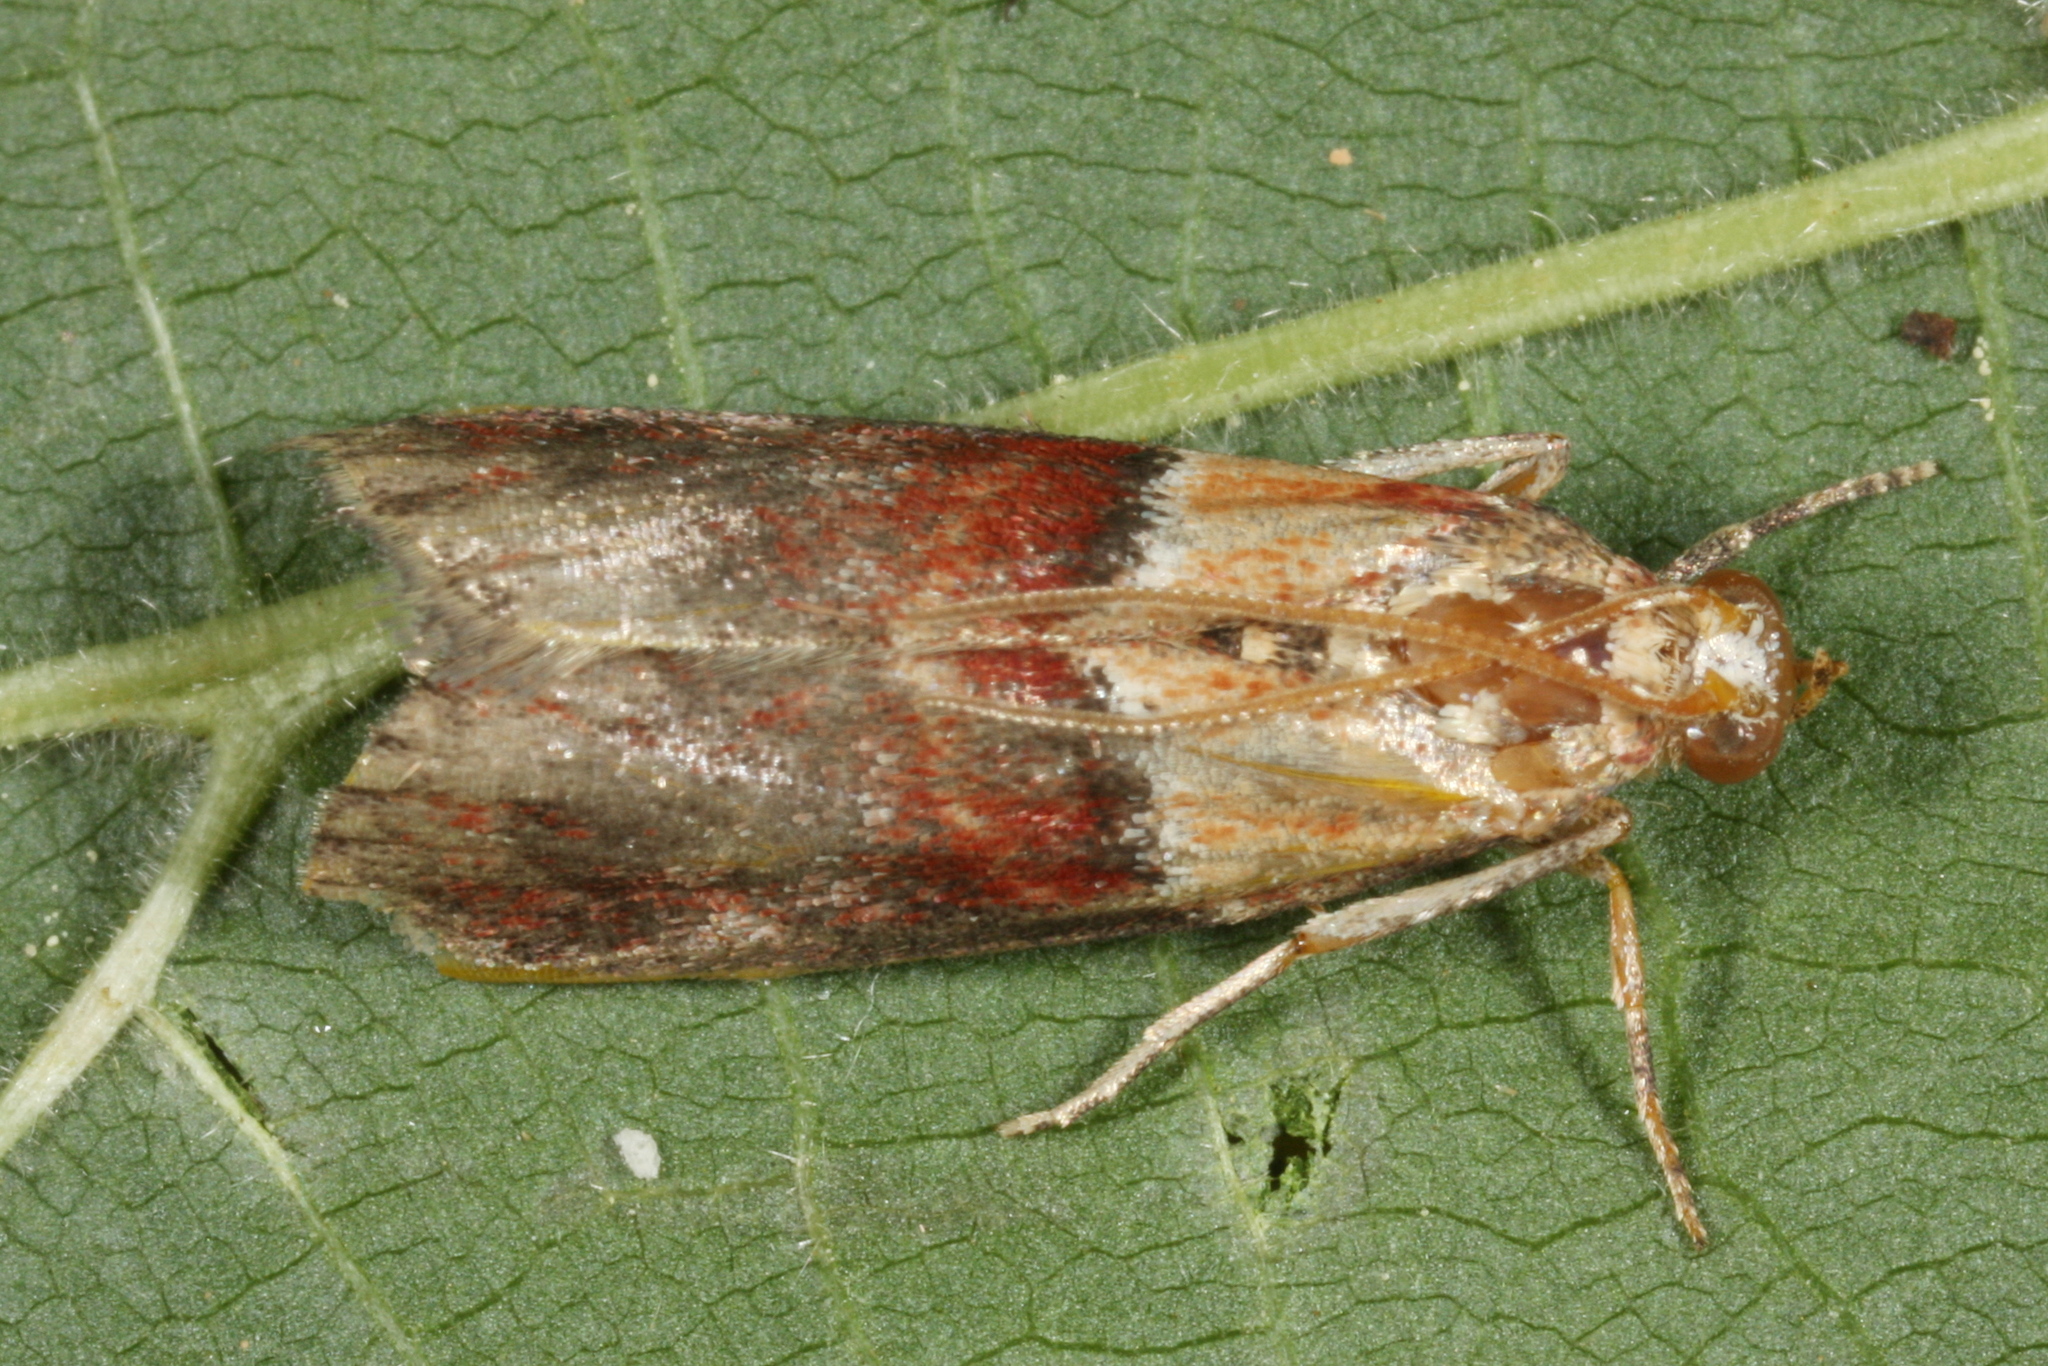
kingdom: Animalia
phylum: Arthropoda
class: Insecta
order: Lepidoptera
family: Pyralidae
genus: Acrobasis
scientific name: Acrobasis repandana
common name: Warted knot-horn
